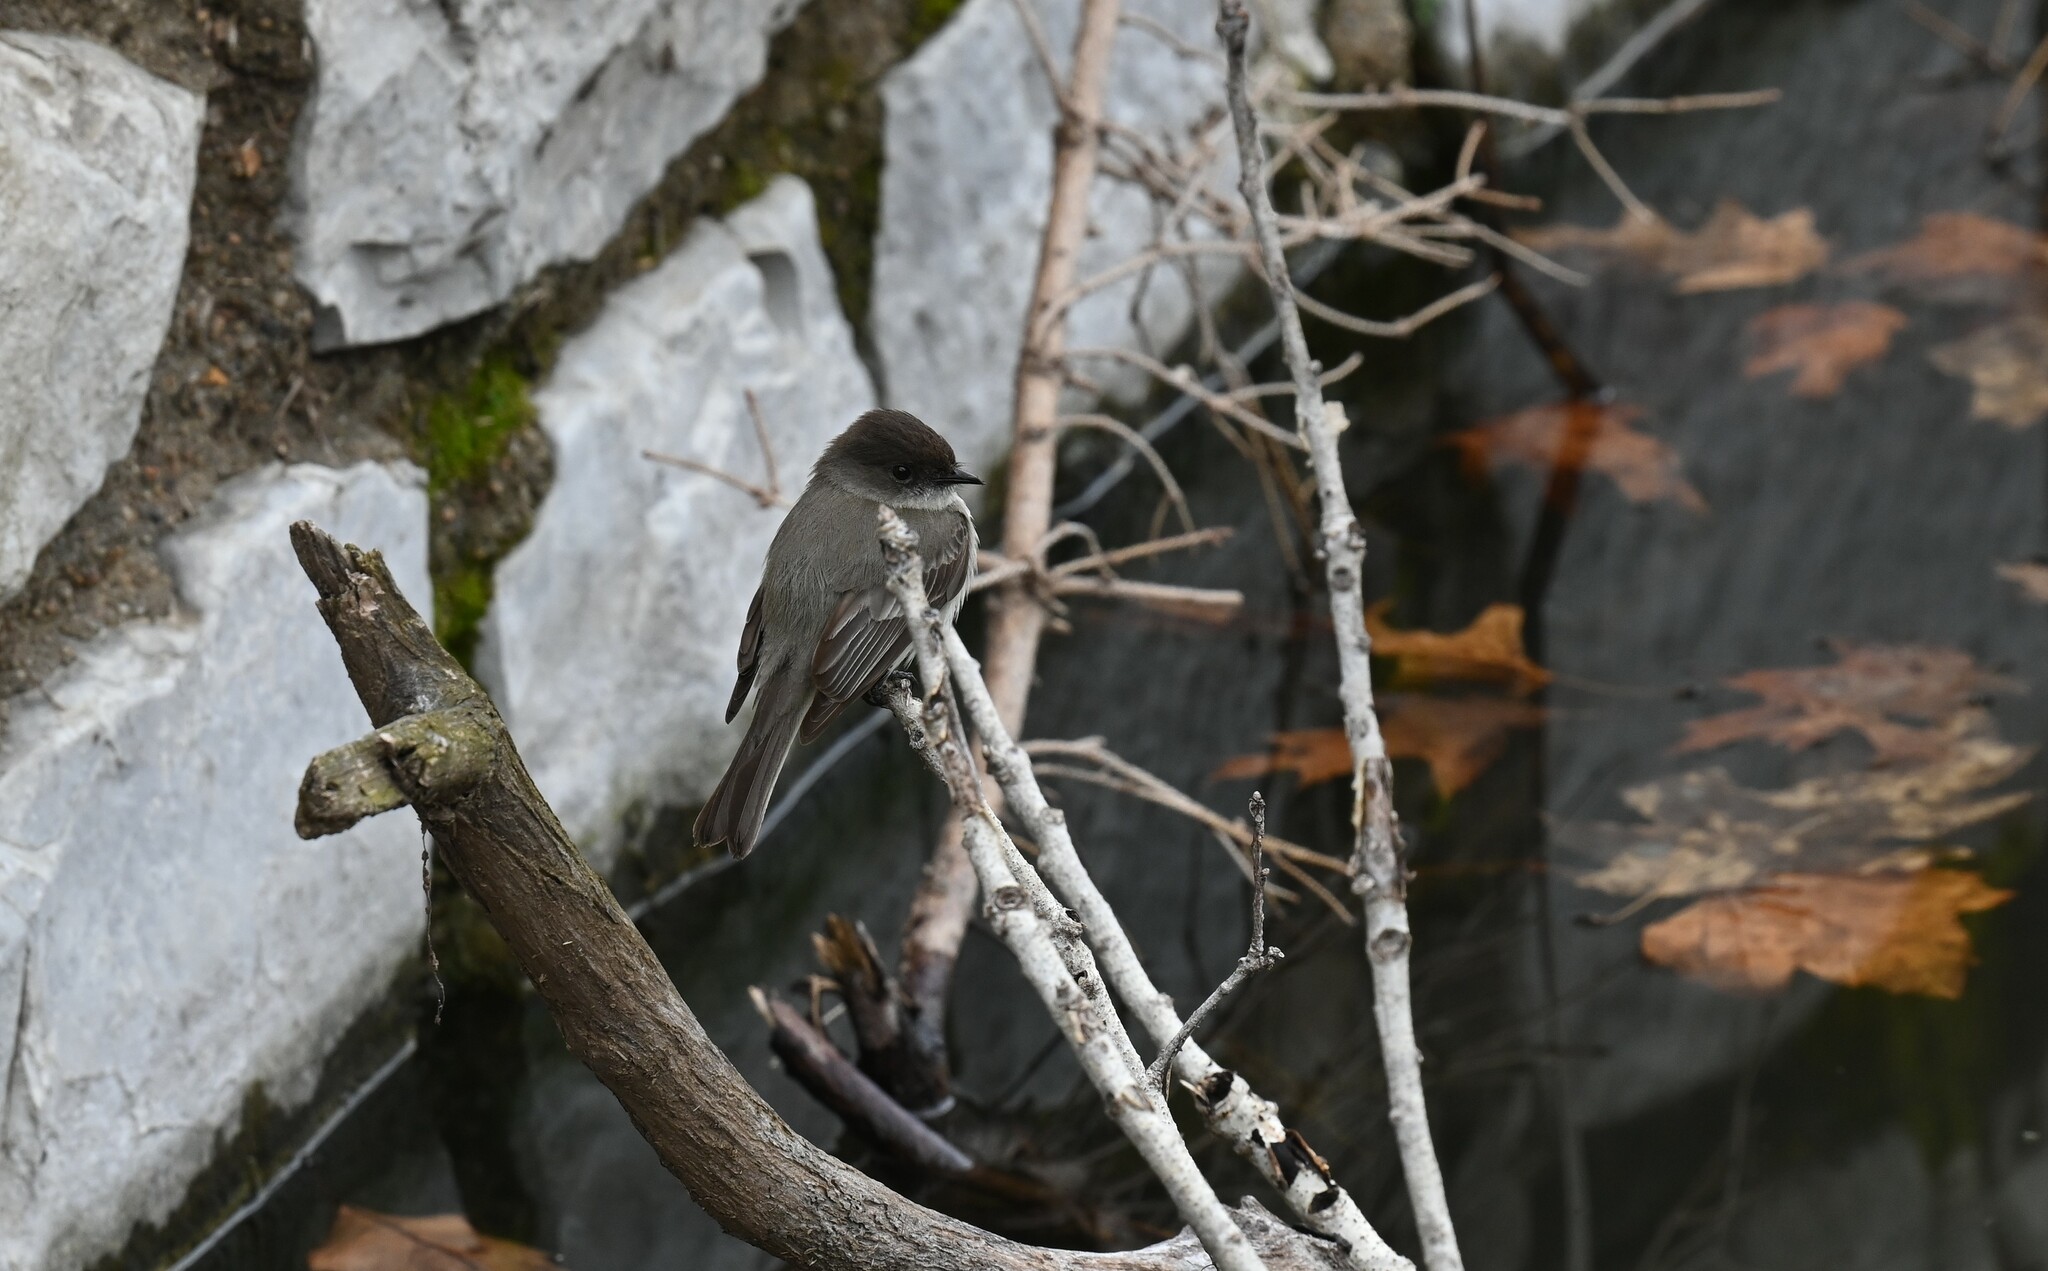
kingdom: Animalia
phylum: Chordata
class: Aves
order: Passeriformes
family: Tyrannidae
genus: Sayornis
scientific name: Sayornis phoebe
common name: Eastern phoebe
